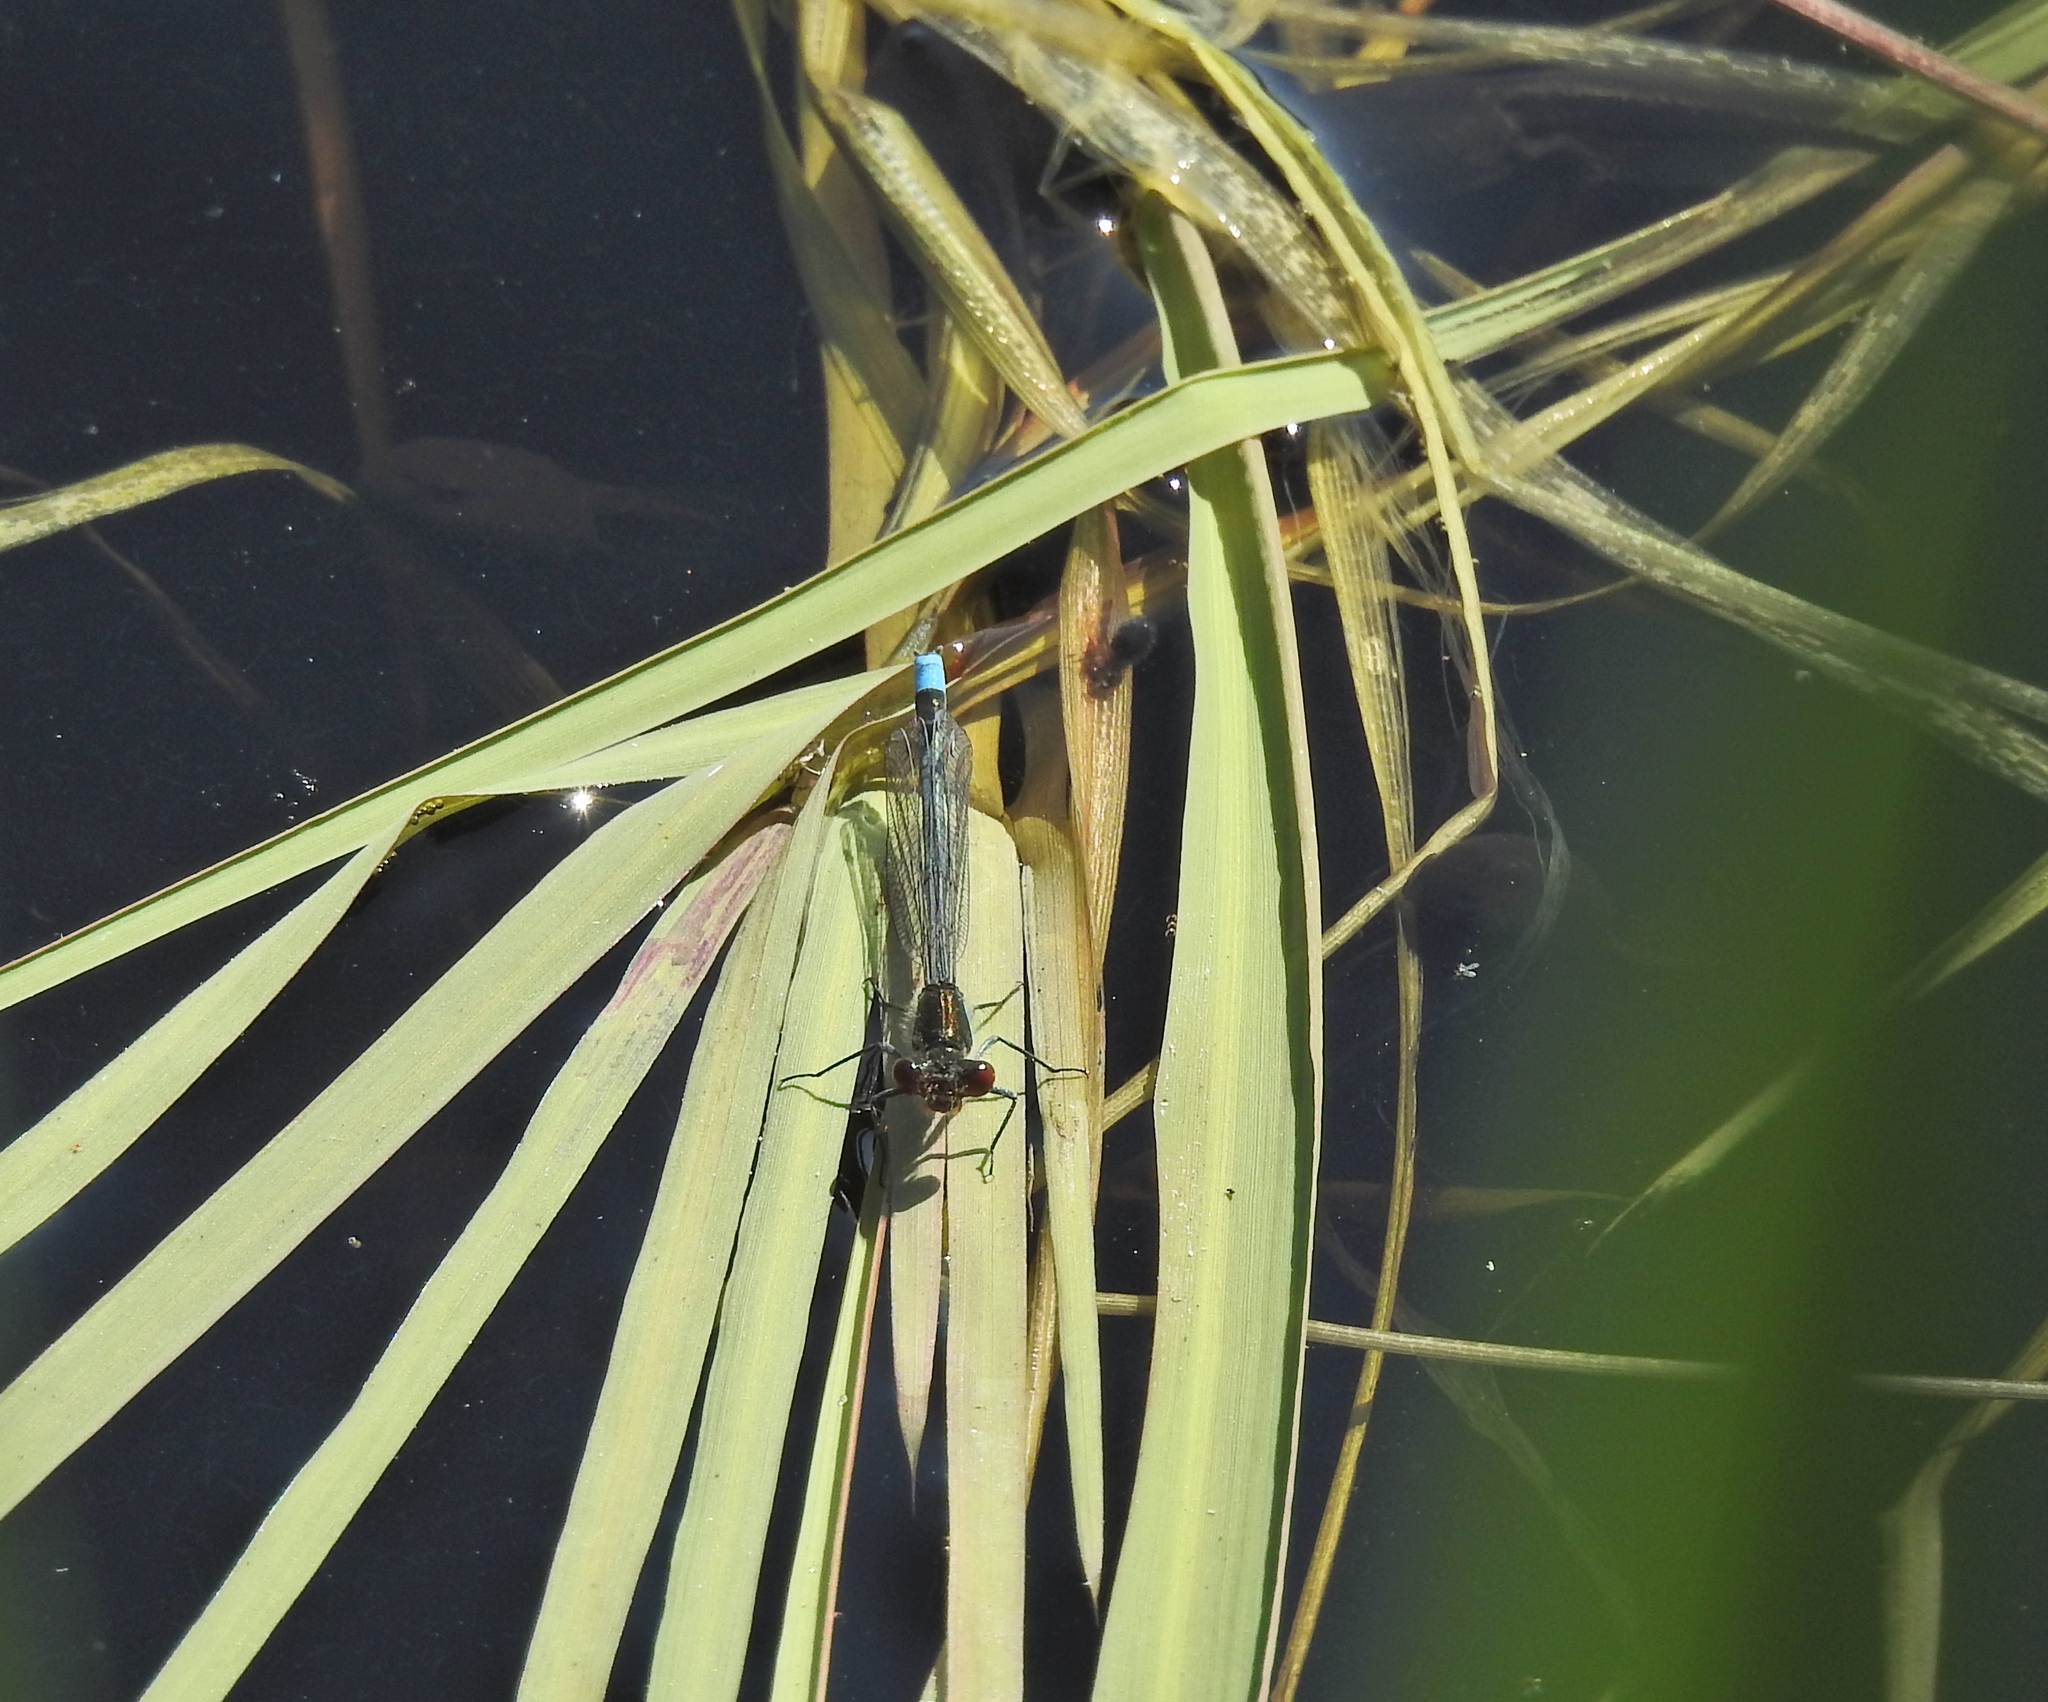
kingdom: Animalia
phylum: Arthropoda
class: Insecta
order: Odonata
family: Coenagrionidae
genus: Erythromma
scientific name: Erythromma najas
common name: Red-eyed damselfly
